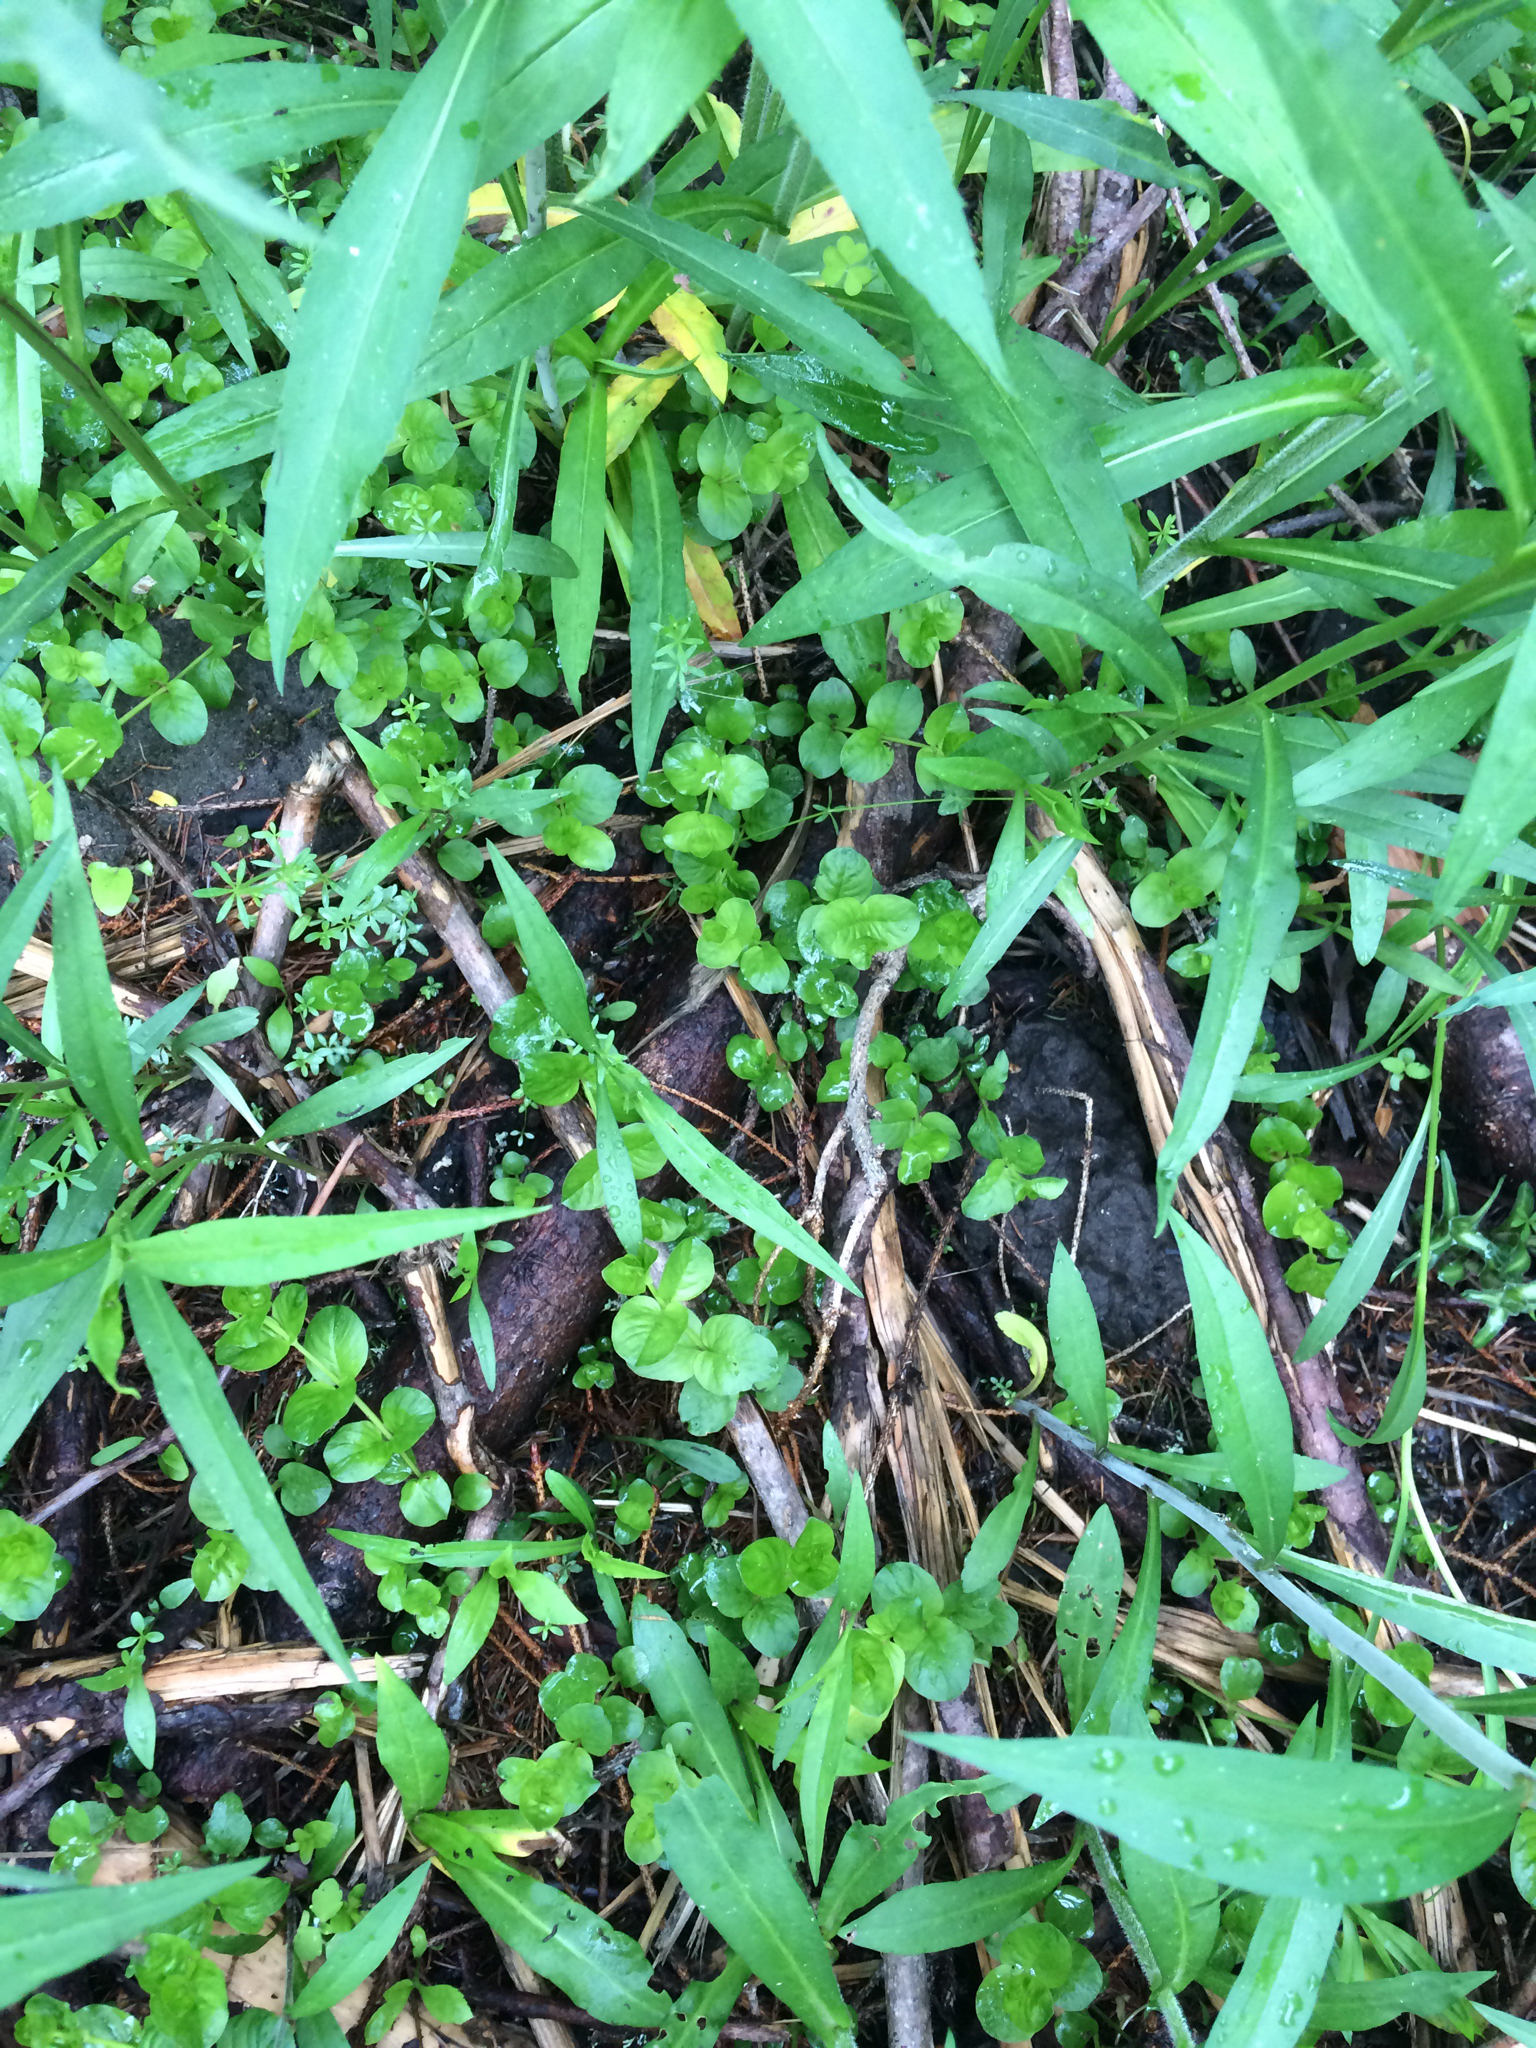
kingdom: Plantae
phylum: Tracheophyta
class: Magnoliopsida
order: Ericales
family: Primulaceae
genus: Lysimachia
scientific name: Lysimachia nummularia
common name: Moneywort
